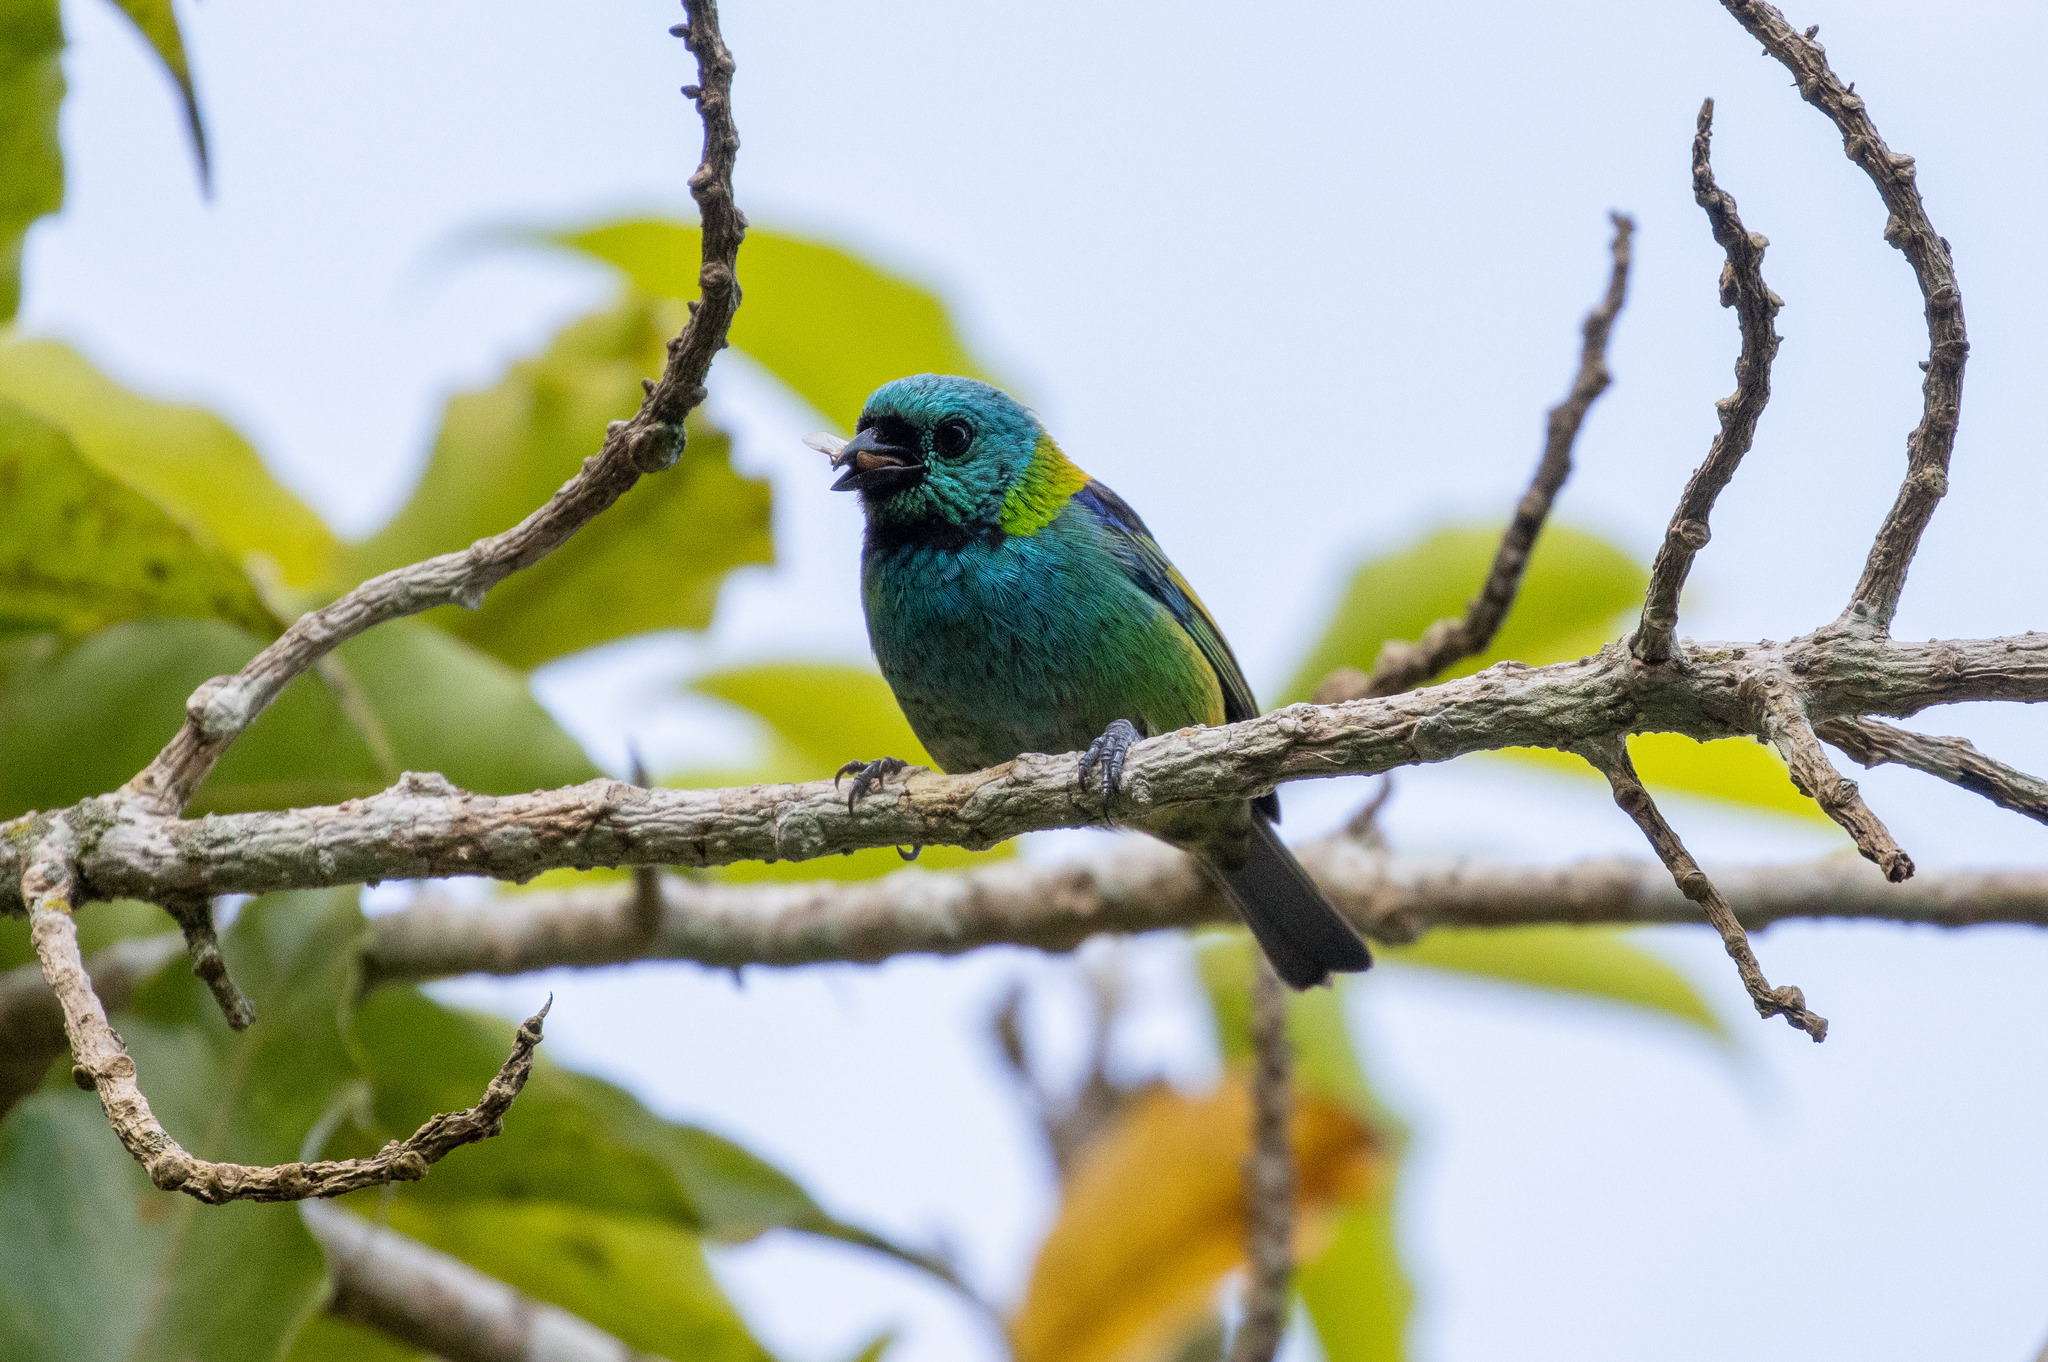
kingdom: Animalia
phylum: Chordata
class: Aves
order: Passeriformes
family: Thraupidae
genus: Tangara
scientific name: Tangara seledon
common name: Green-headed tanager
